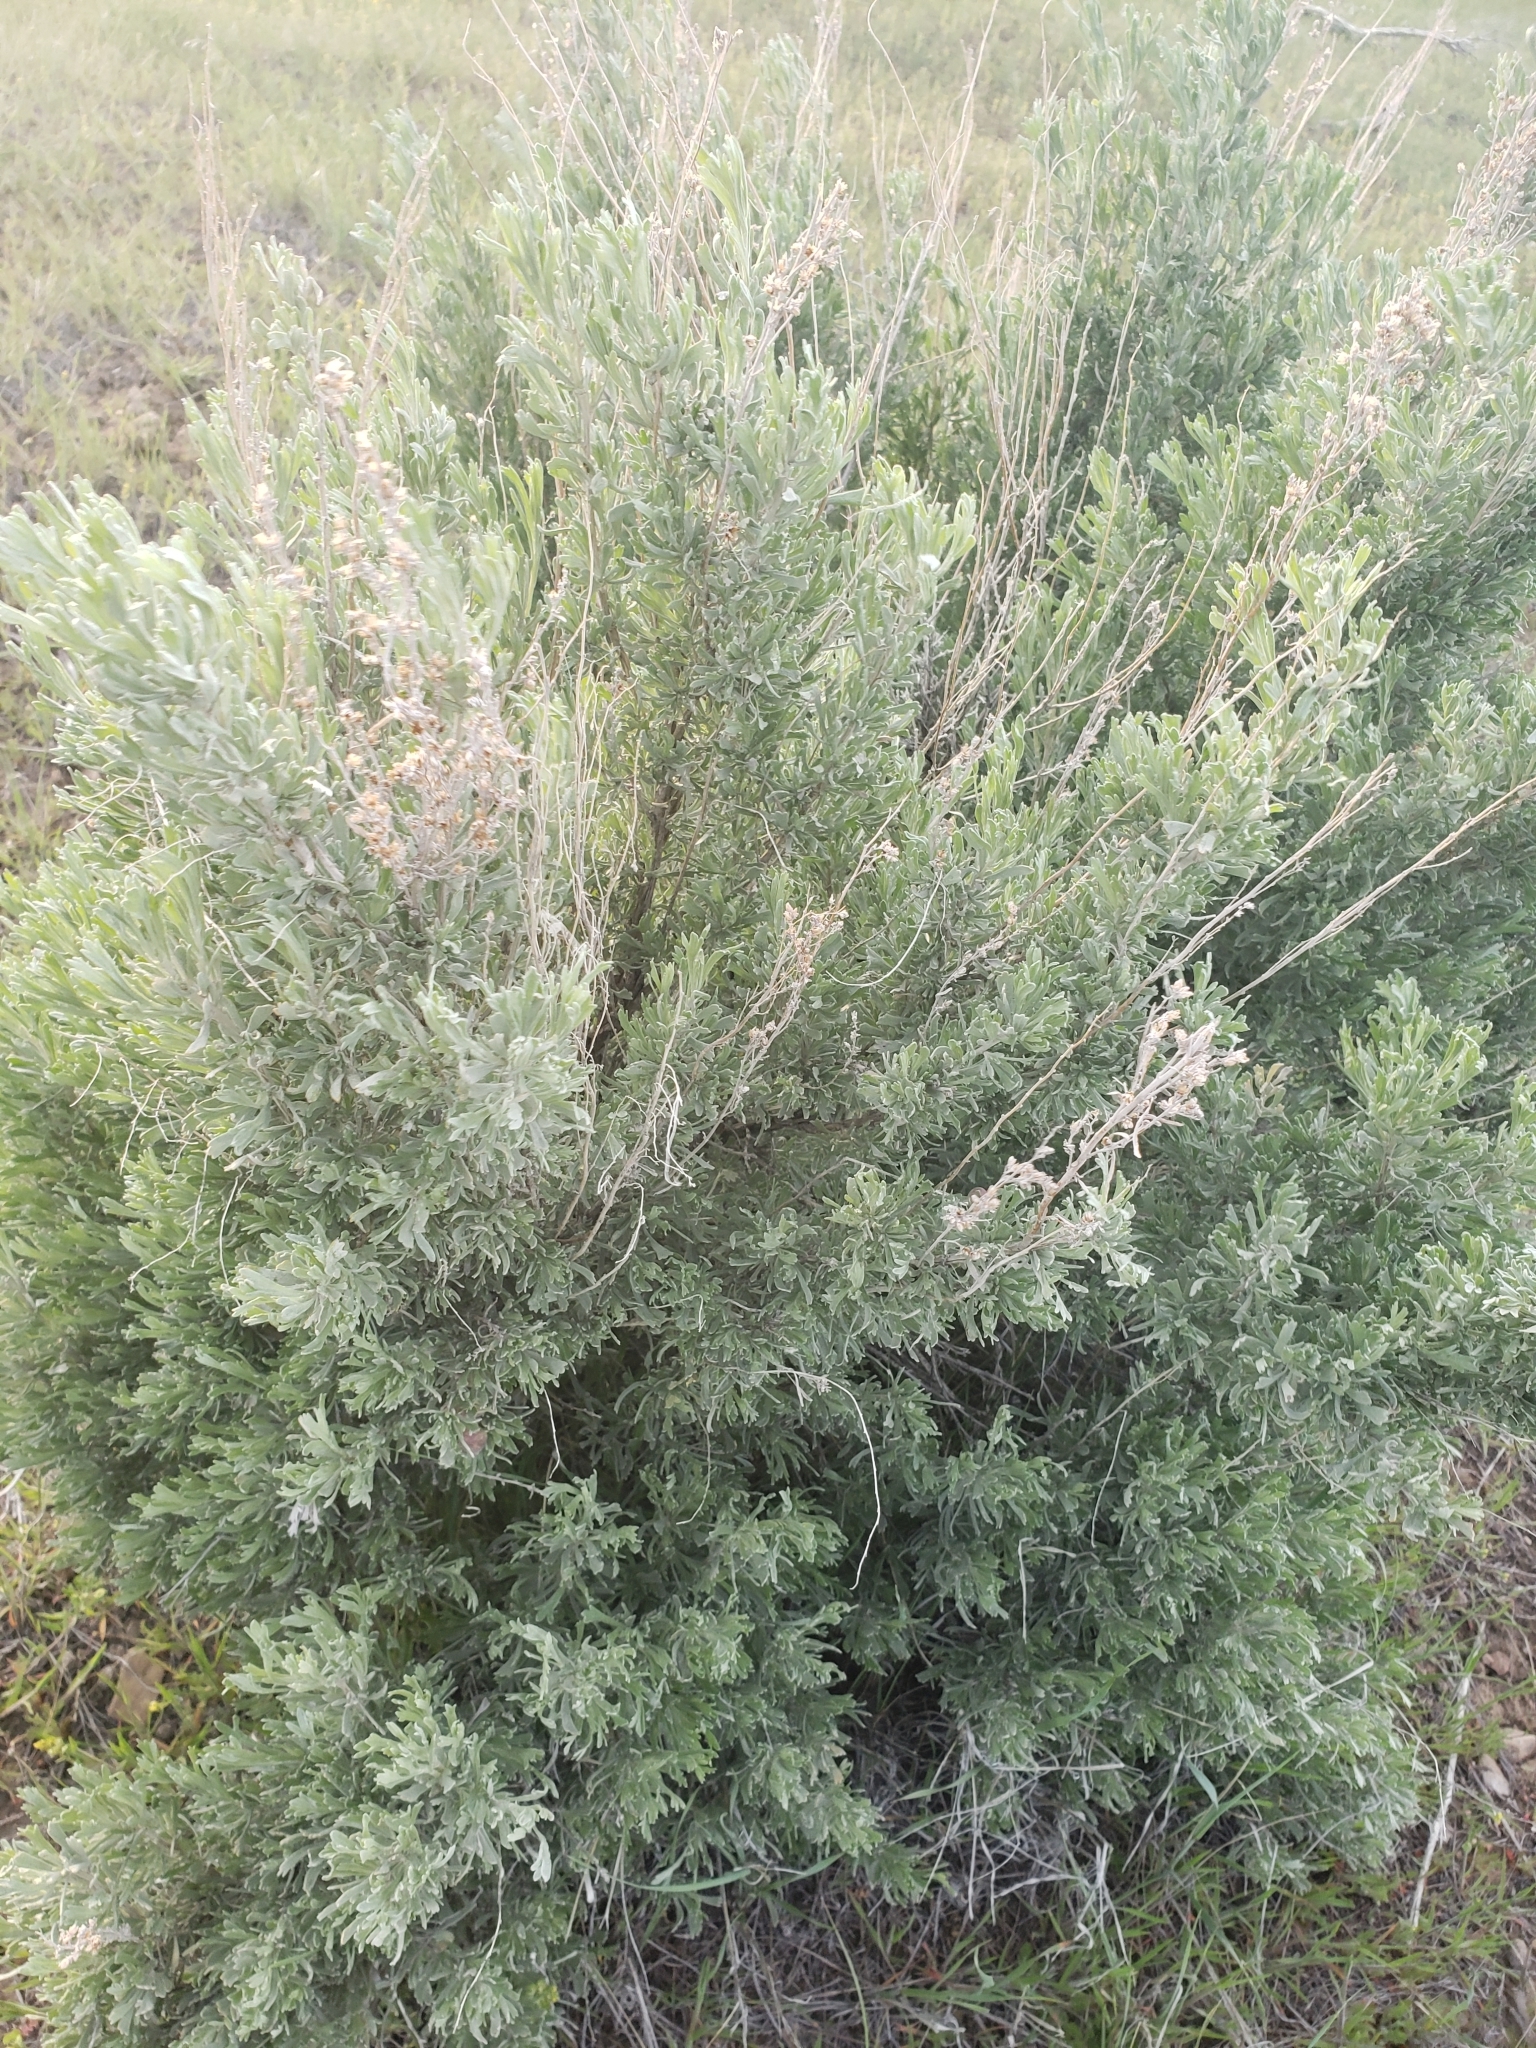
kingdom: Plantae
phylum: Tracheophyta
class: Magnoliopsida
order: Asterales
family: Asteraceae
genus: Artemisia
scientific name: Artemisia tridentata
